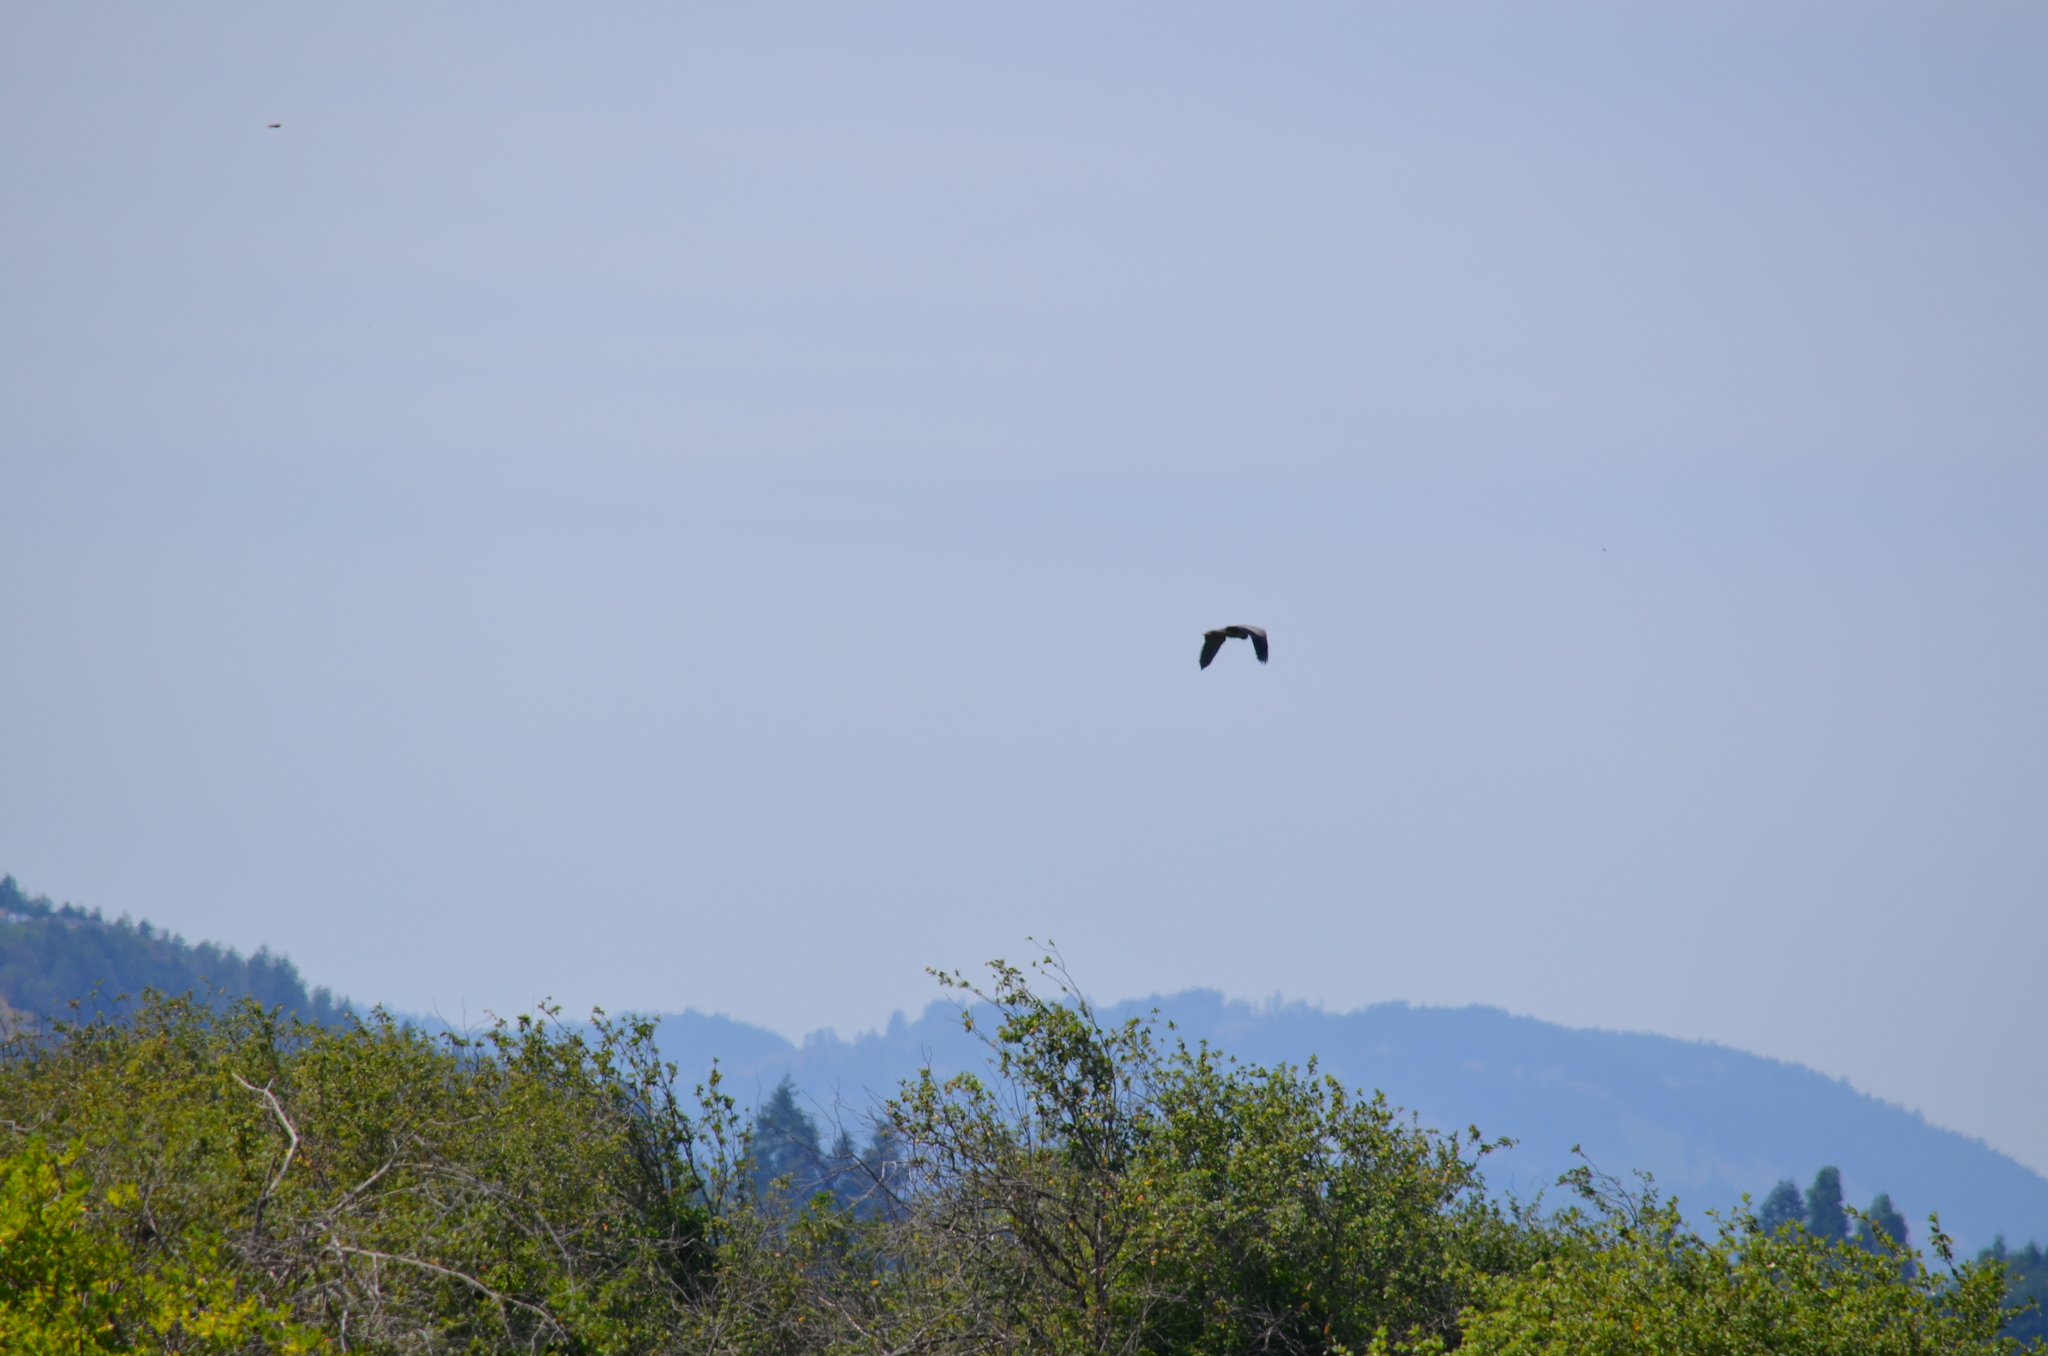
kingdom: Animalia
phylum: Chordata
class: Aves
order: Pelecaniformes
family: Ardeidae
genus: Ardea
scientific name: Ardea herodias
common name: Great blue heron
